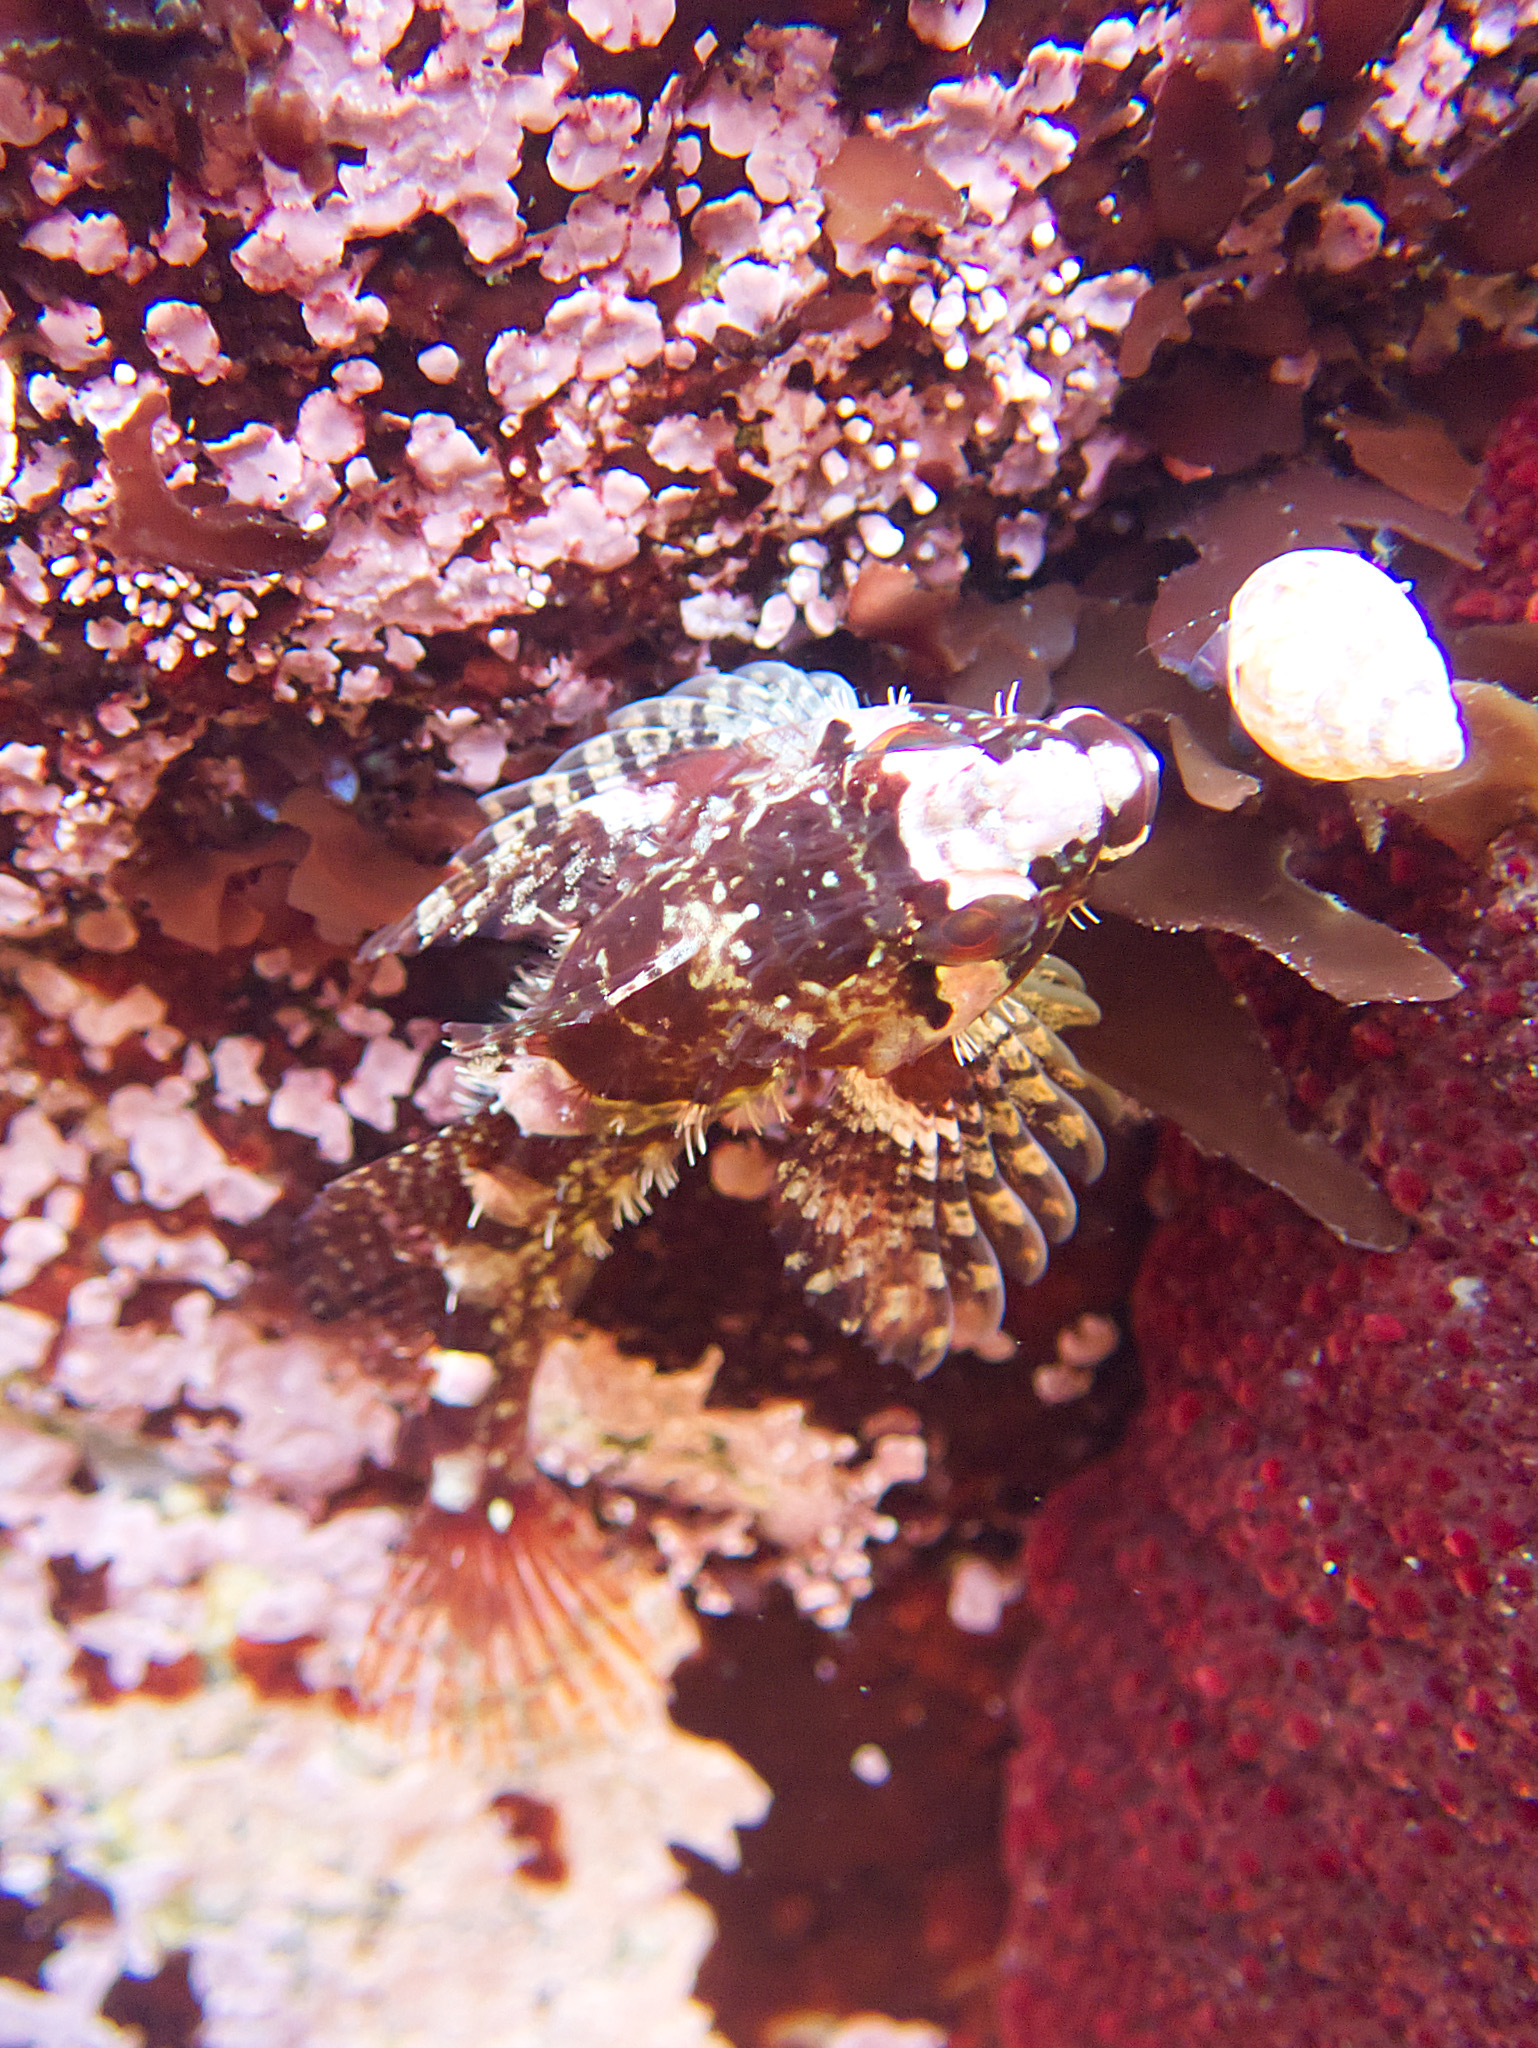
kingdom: Animalia
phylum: Chordata
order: Scorpaeniformes
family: Cottidae
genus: Oligocottus
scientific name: Oligocottus rubellio
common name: Rosy sculpin
